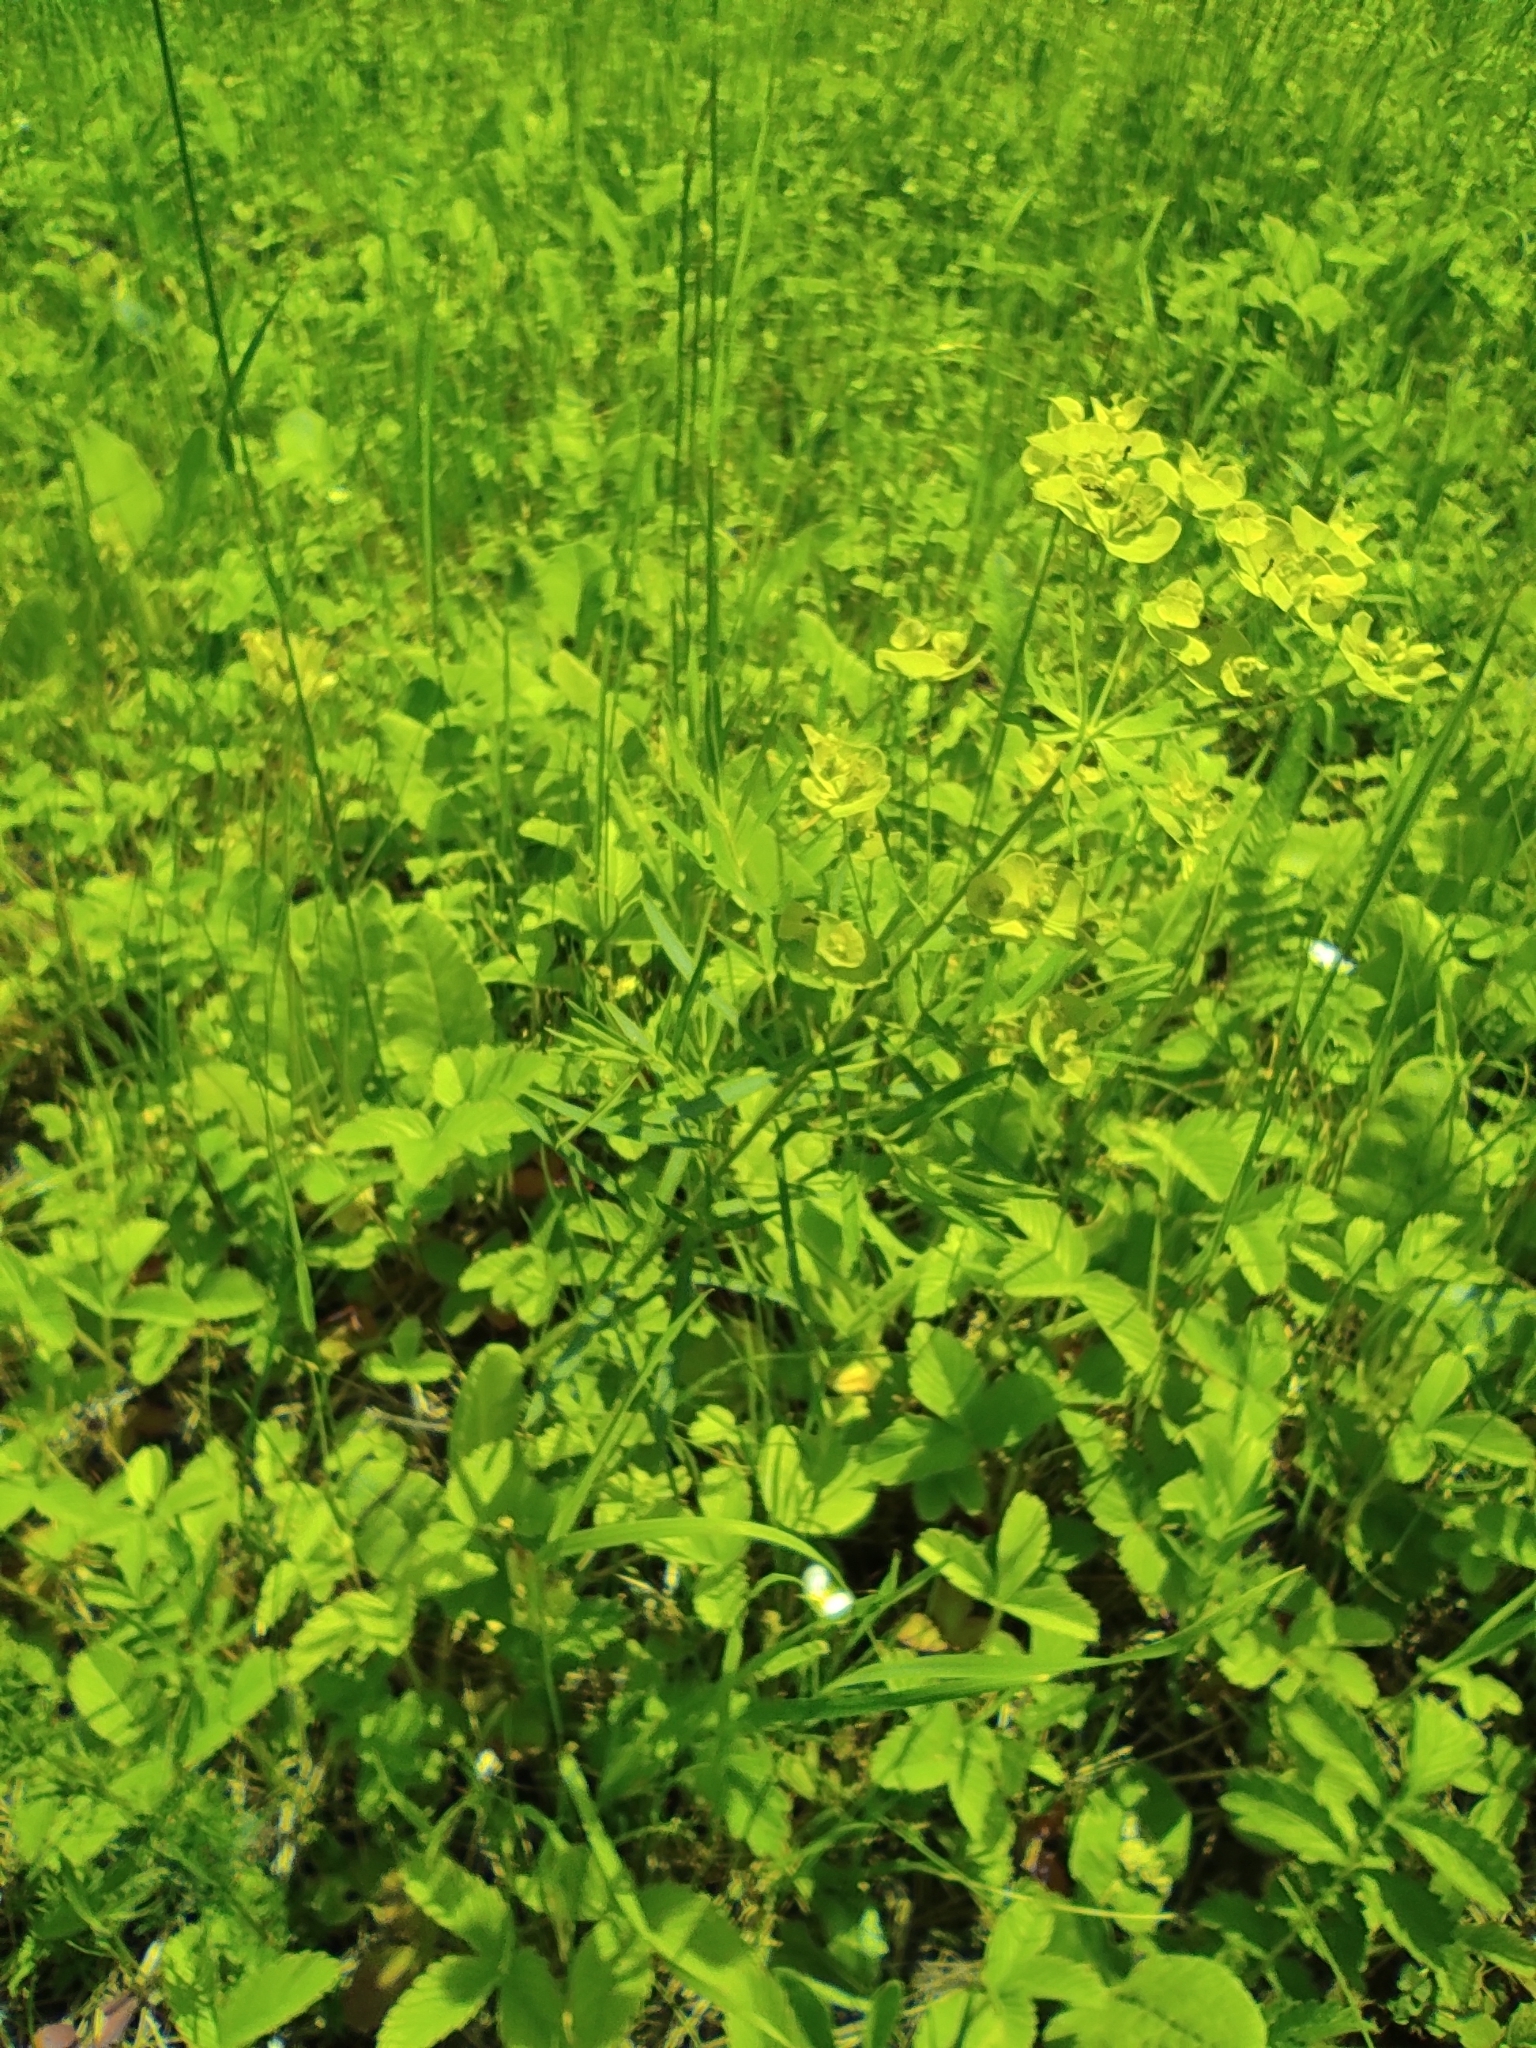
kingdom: Plantae
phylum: Tracheophyta
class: Magnoliopsida
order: Malpighiales
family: Euphorbiaceae
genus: Euphorbia
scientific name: Euphorbia virgata
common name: Leafy spurge
